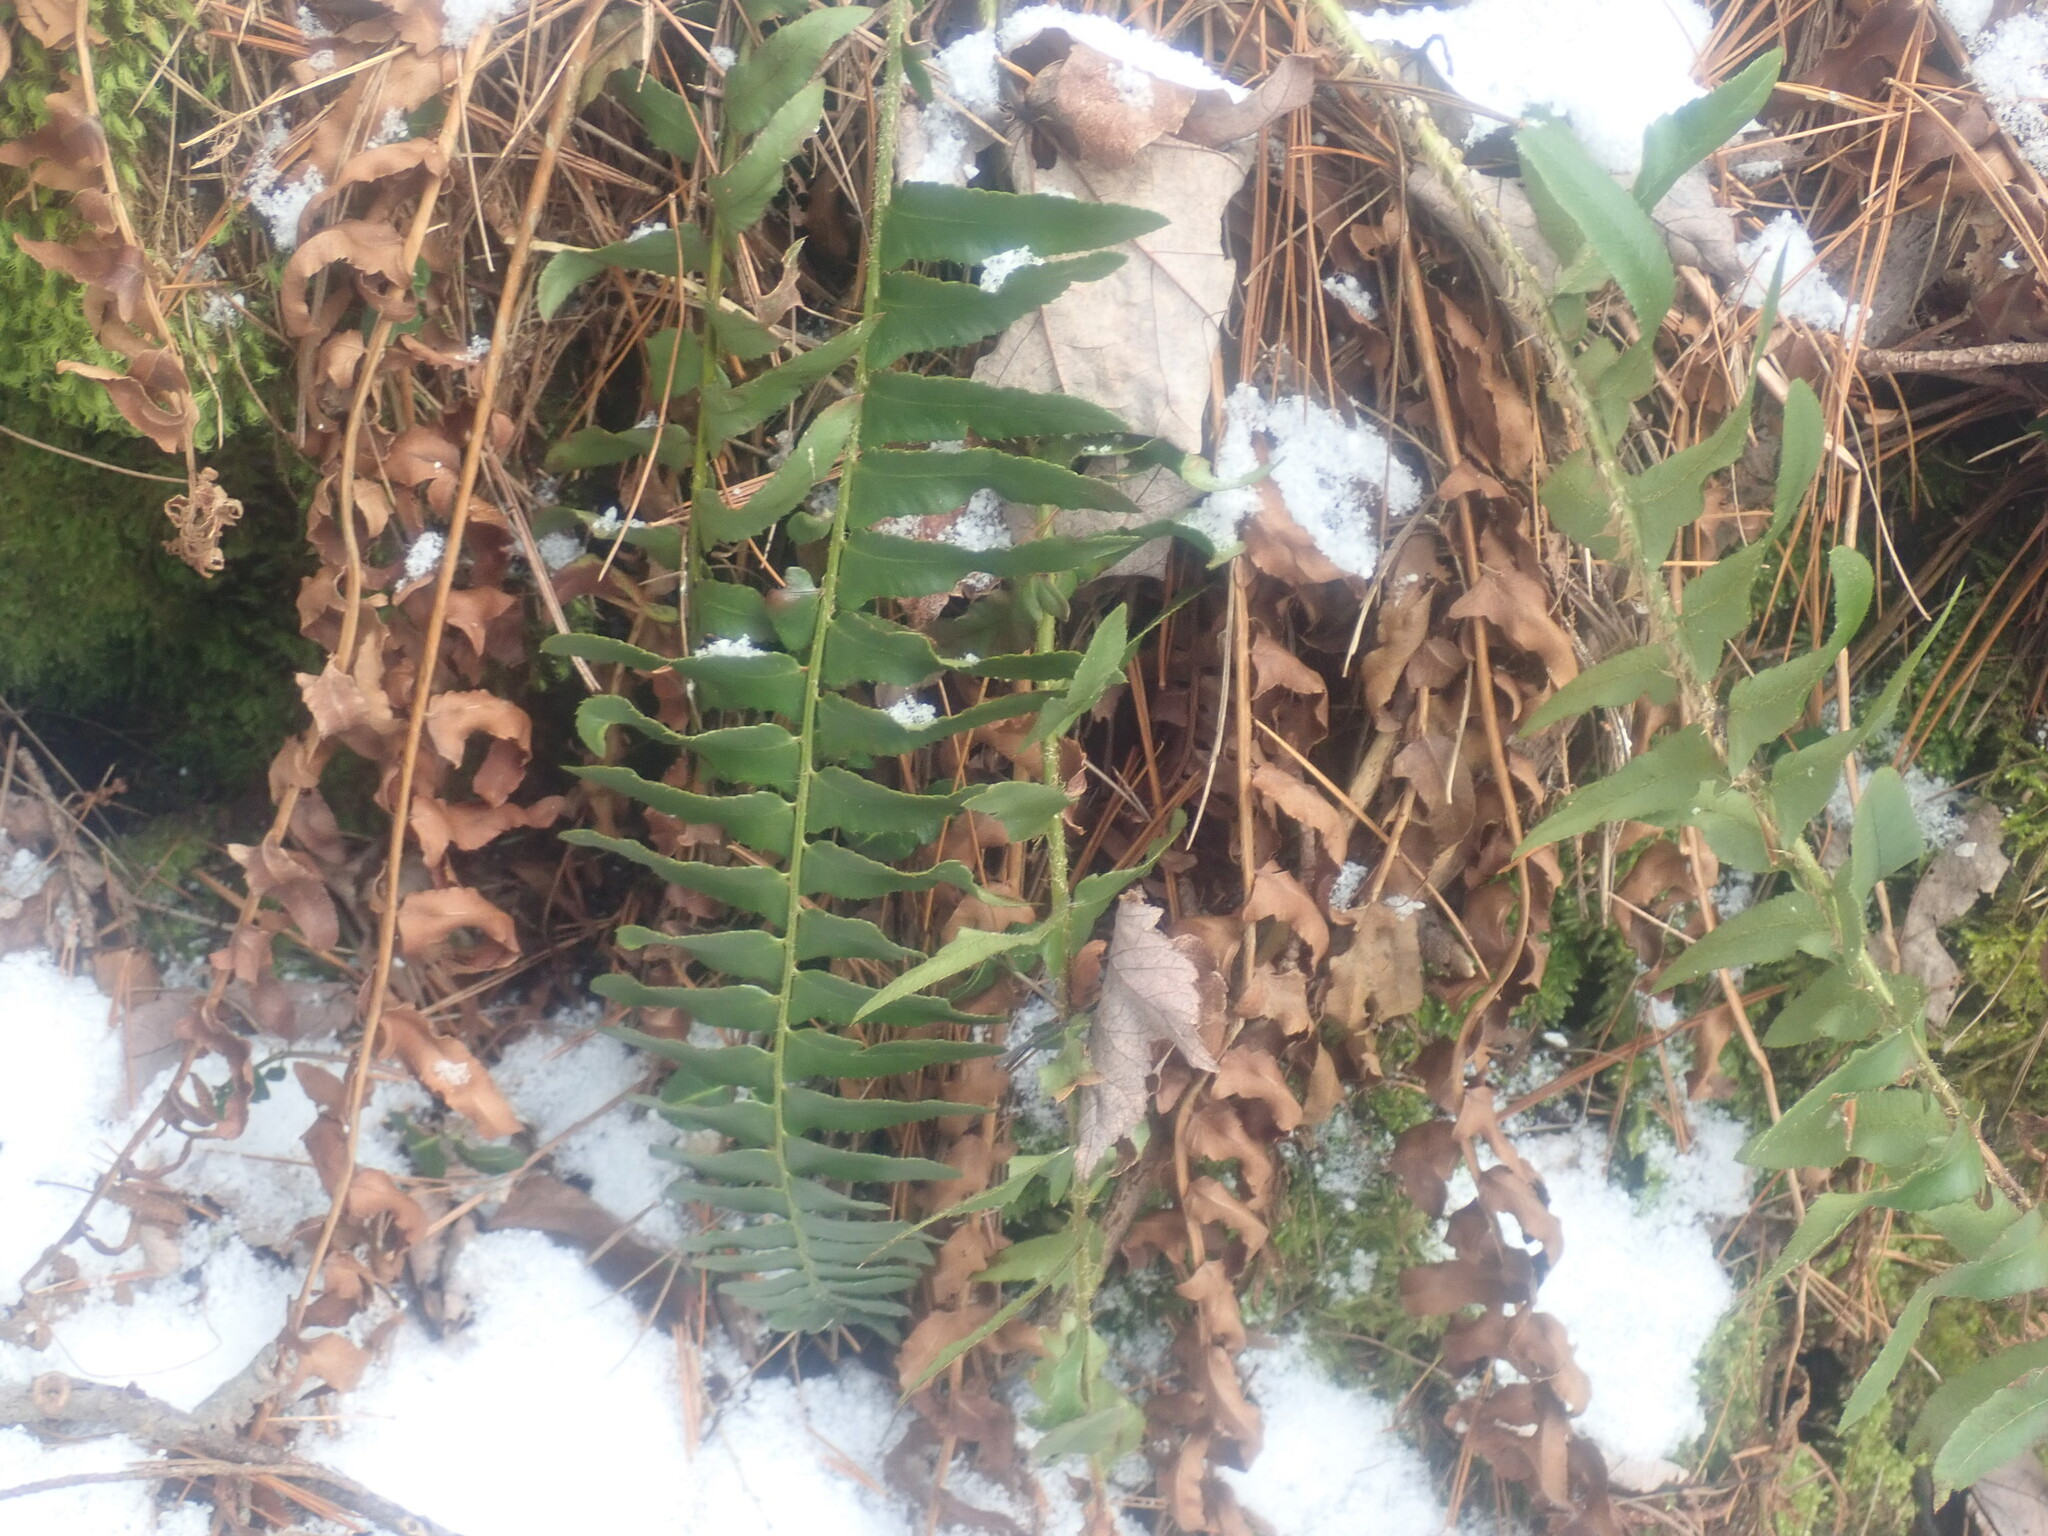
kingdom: Plantae
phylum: Tracheophyta
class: Polypodiopsida
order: Polypodiales
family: Dryopteridaceae
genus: Polystichum
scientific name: Polystichum acrostichoides
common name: Christmas fern
